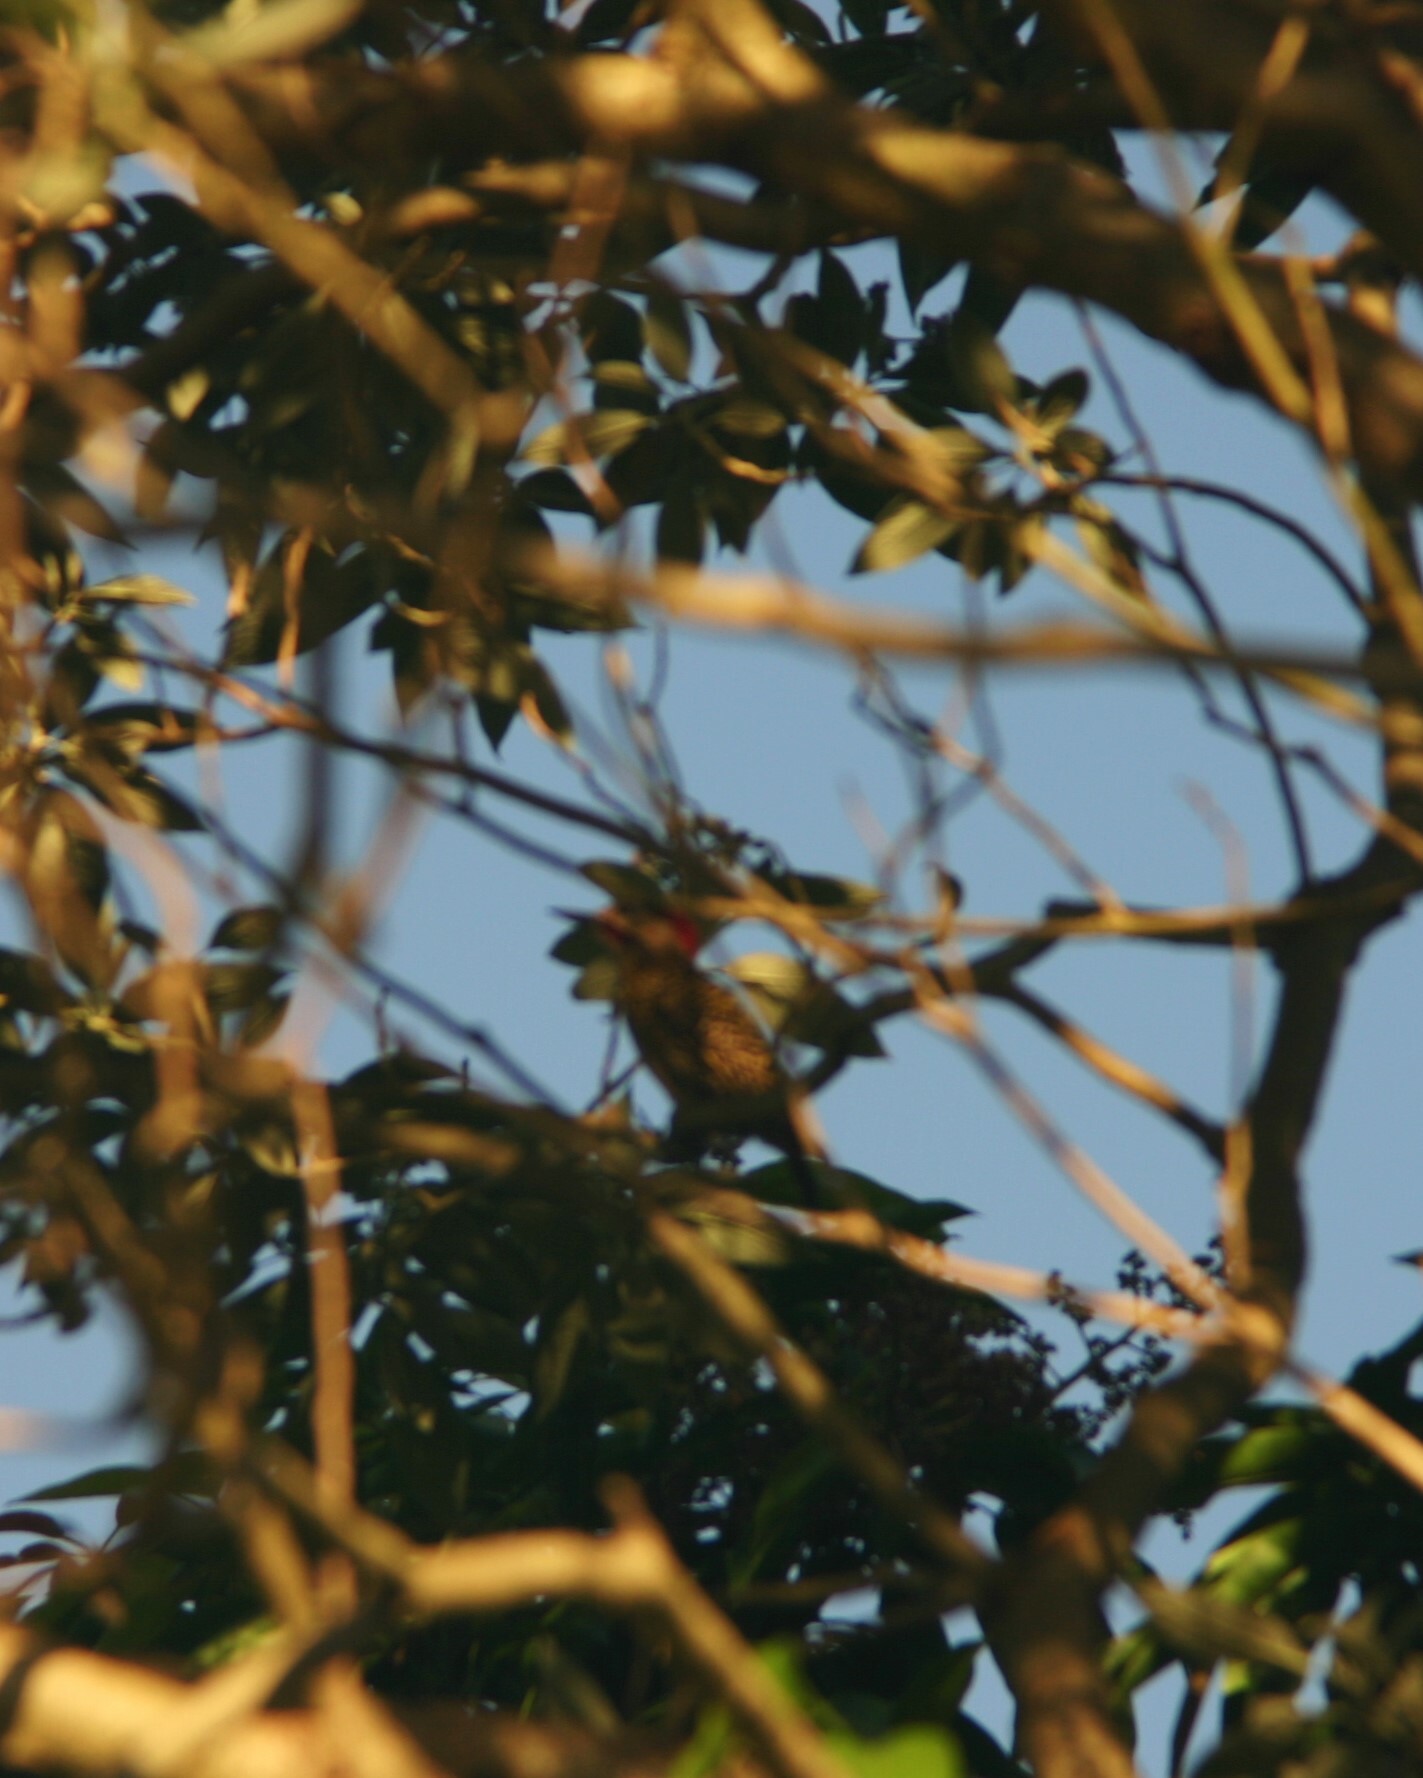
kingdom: Animalia
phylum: Chordata
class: Aves
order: Piciformes
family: Picidae
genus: Colaptes
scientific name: Colaptes melanochloros
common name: Green-barred woodpecker
